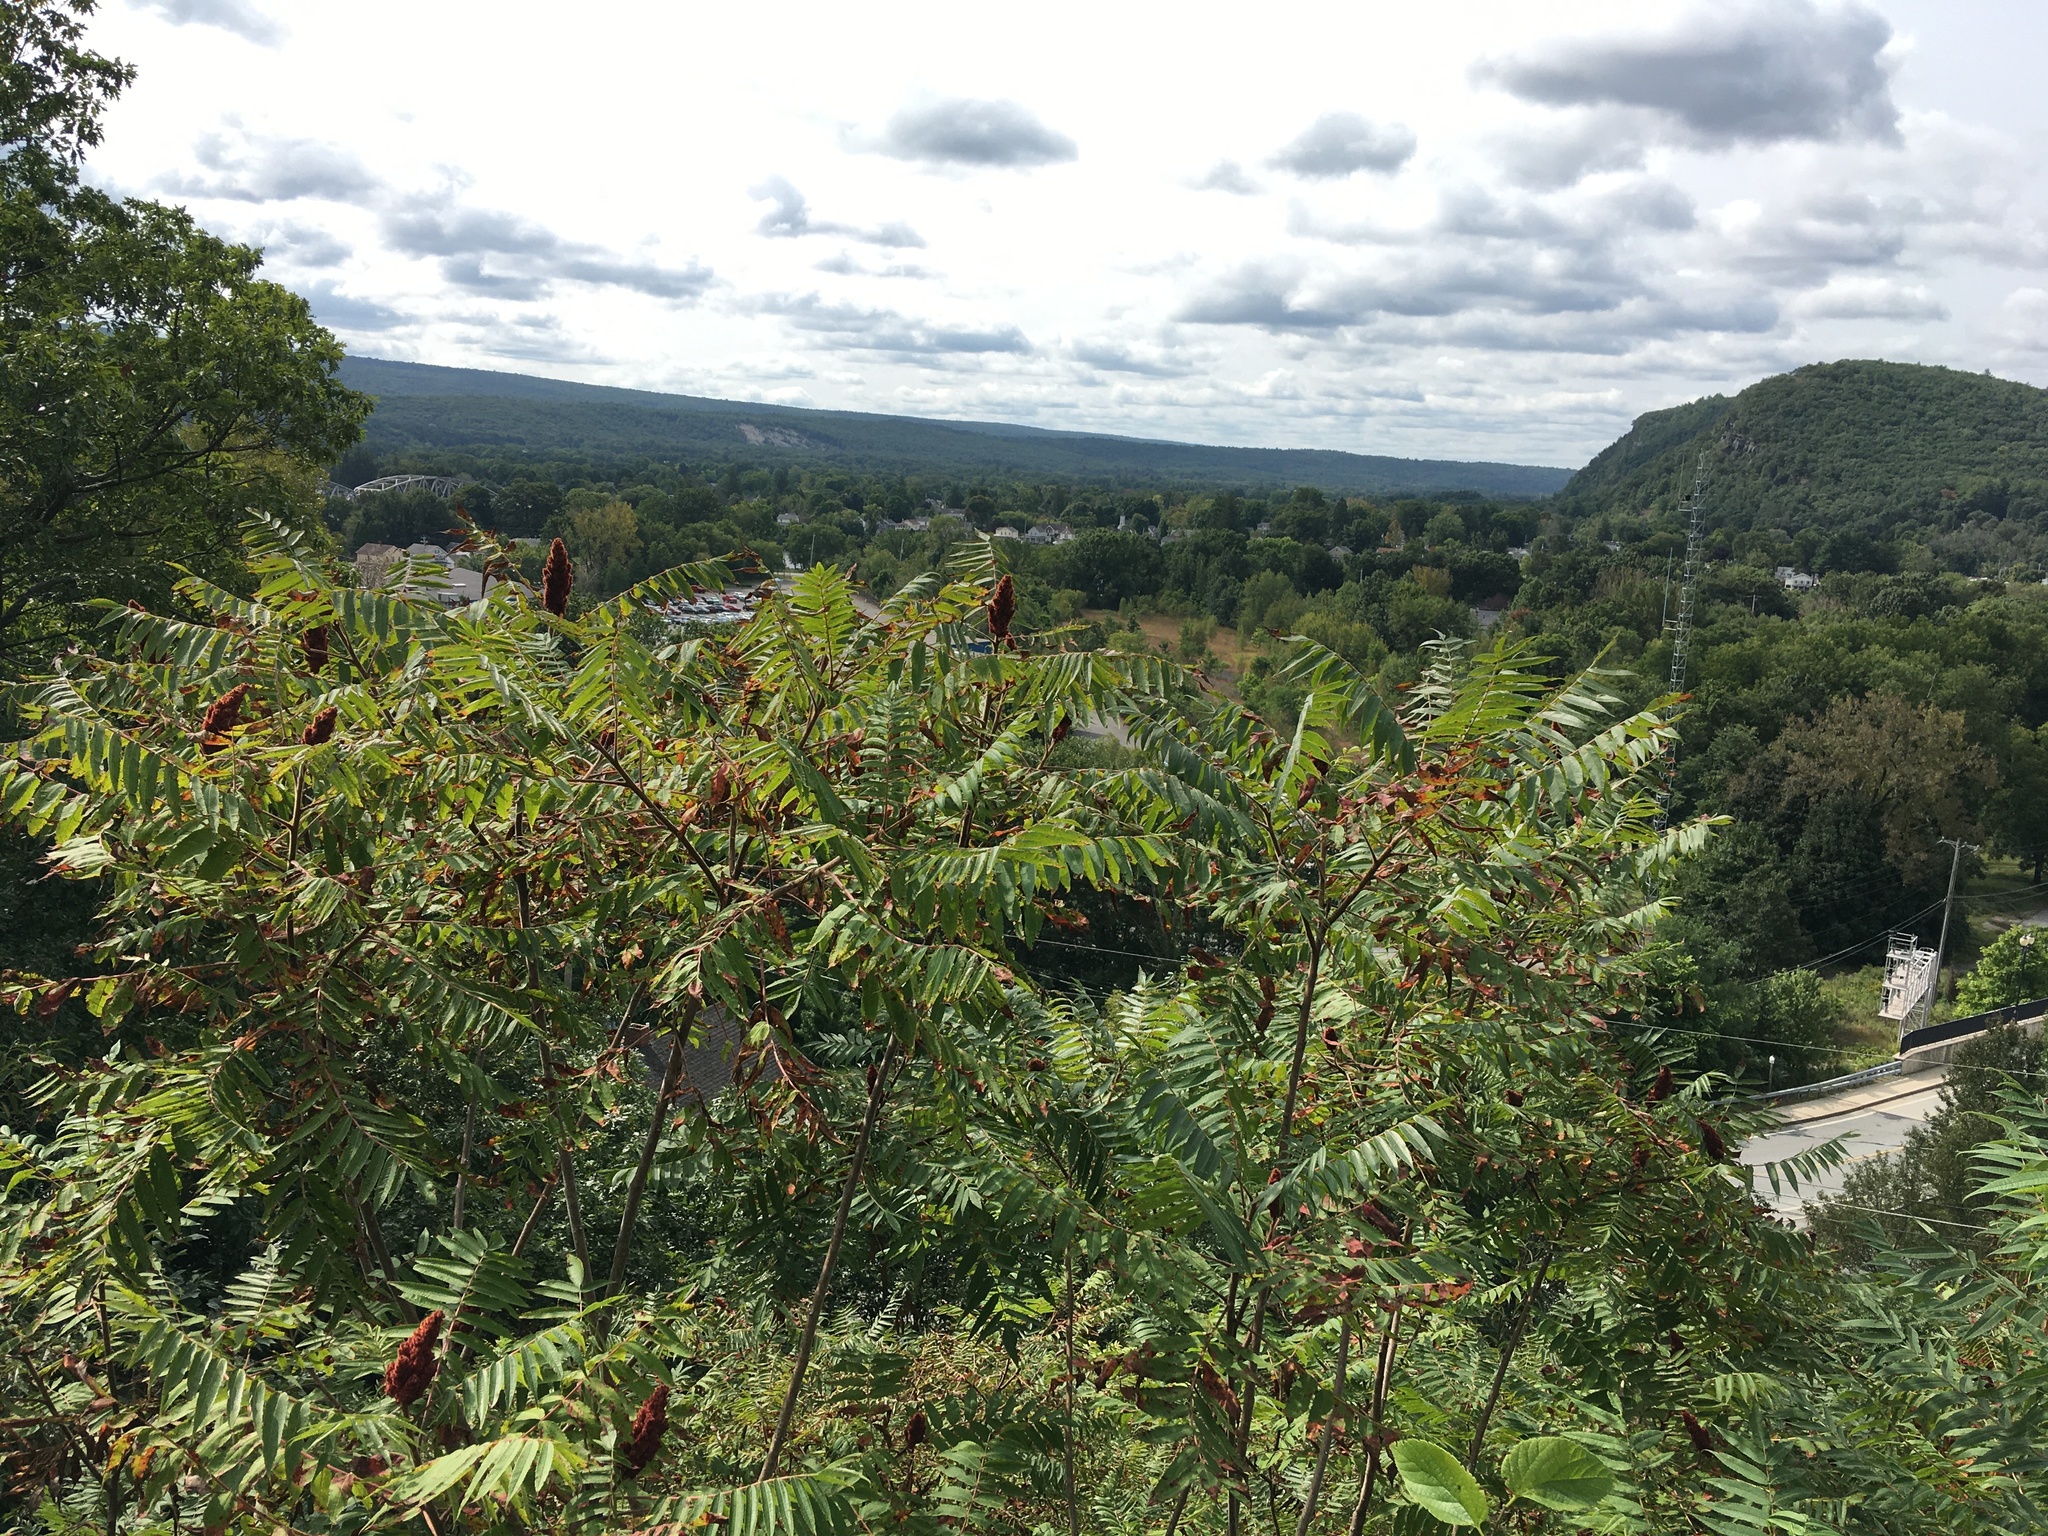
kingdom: Plantae
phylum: Tracheophyta
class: Magnoliopsida
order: Sapindales
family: Anacardiaceae
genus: Rhus
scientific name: Rhus typhina
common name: Staghorn sumac
